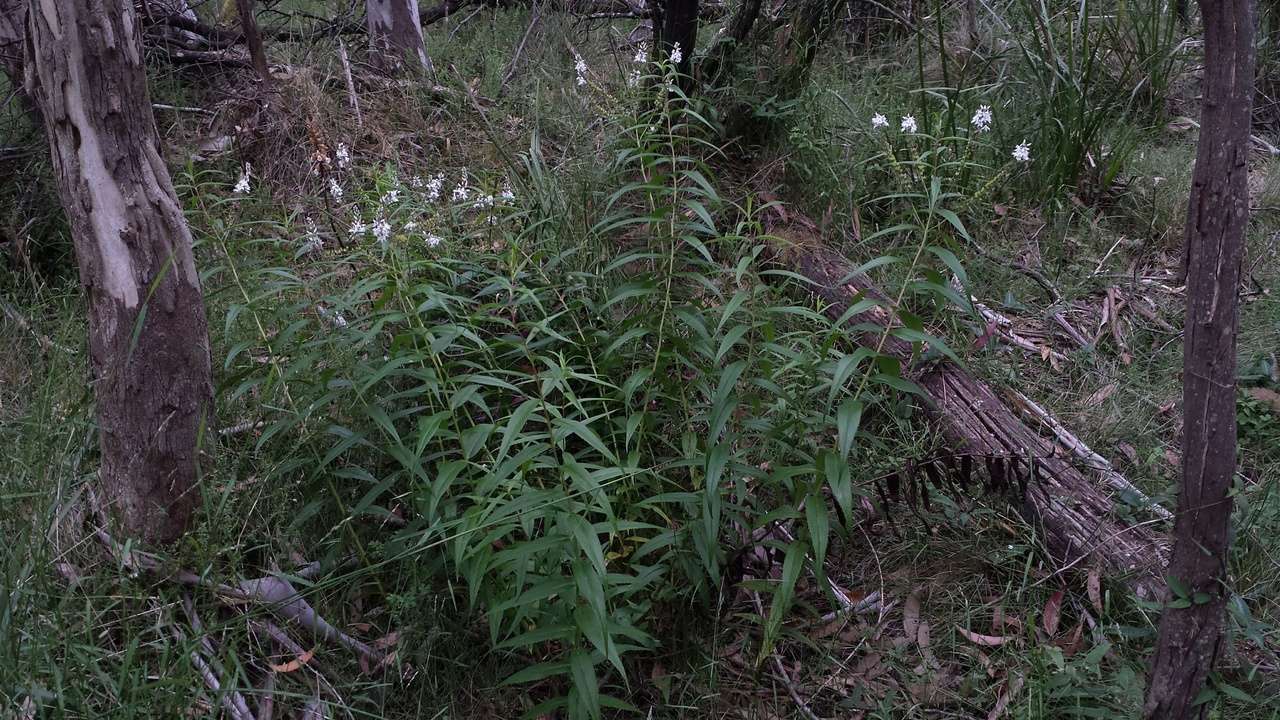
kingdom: Plantae
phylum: Tracheophyta
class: Magnoliopsida
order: Lamiales
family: Plantaginaceae
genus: Veronica
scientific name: Veronica derwentiana
